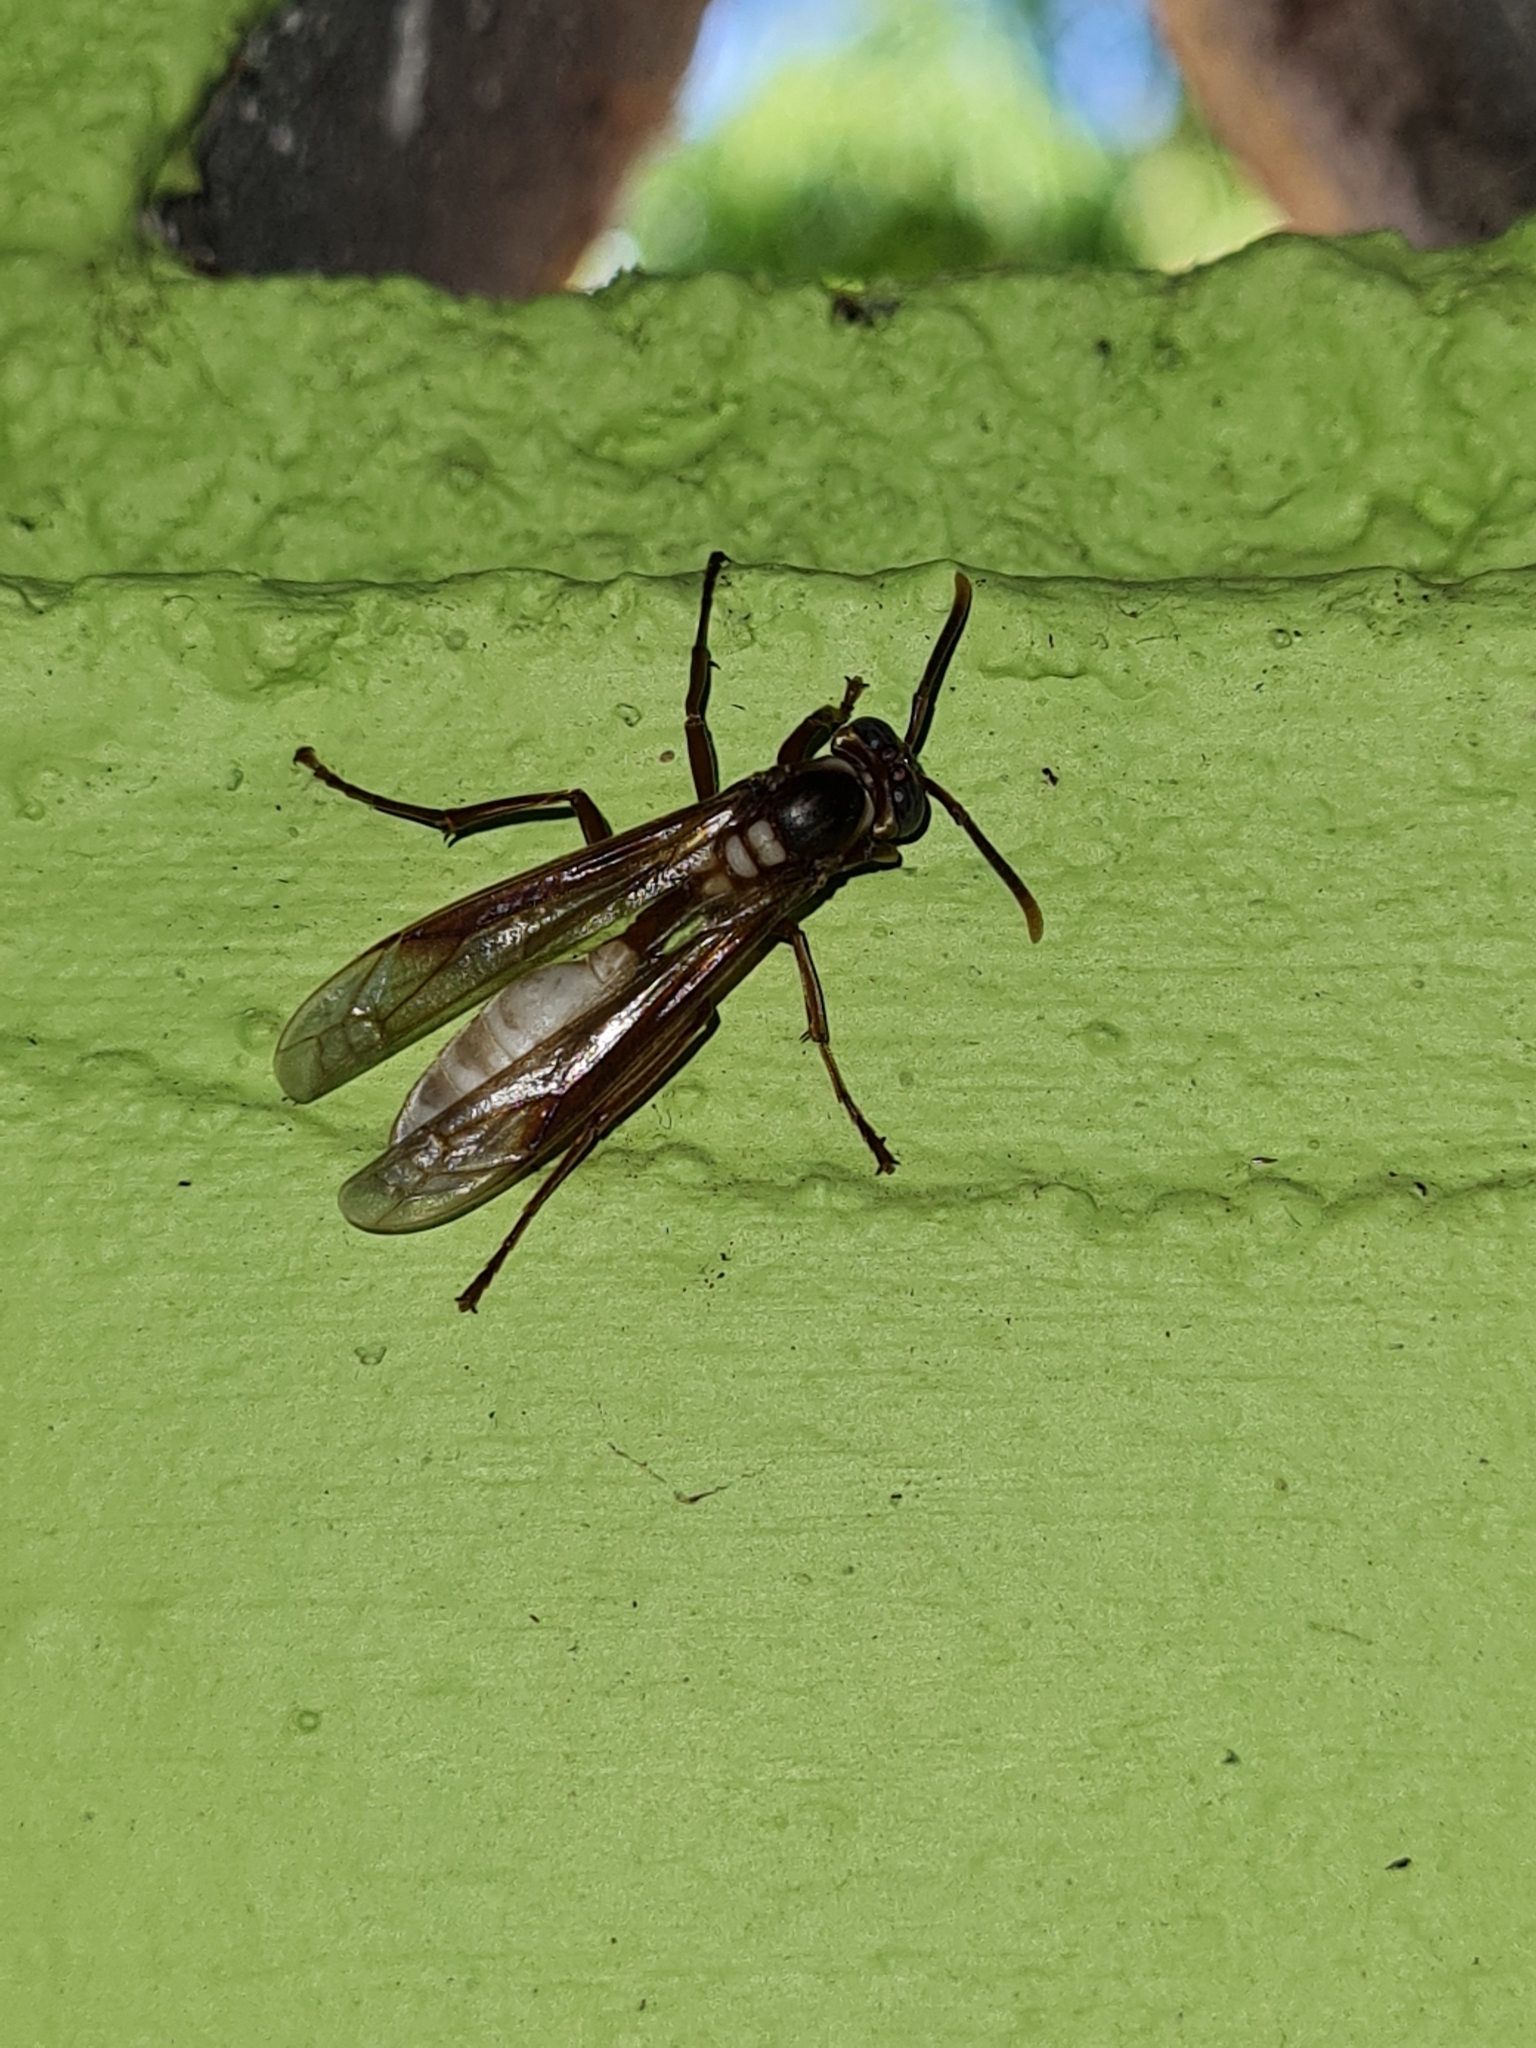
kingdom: Animalia
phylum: Arthropoda
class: Insecta
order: Hymenoptera
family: Vespidae
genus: Apoica
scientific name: Apoica pallens
